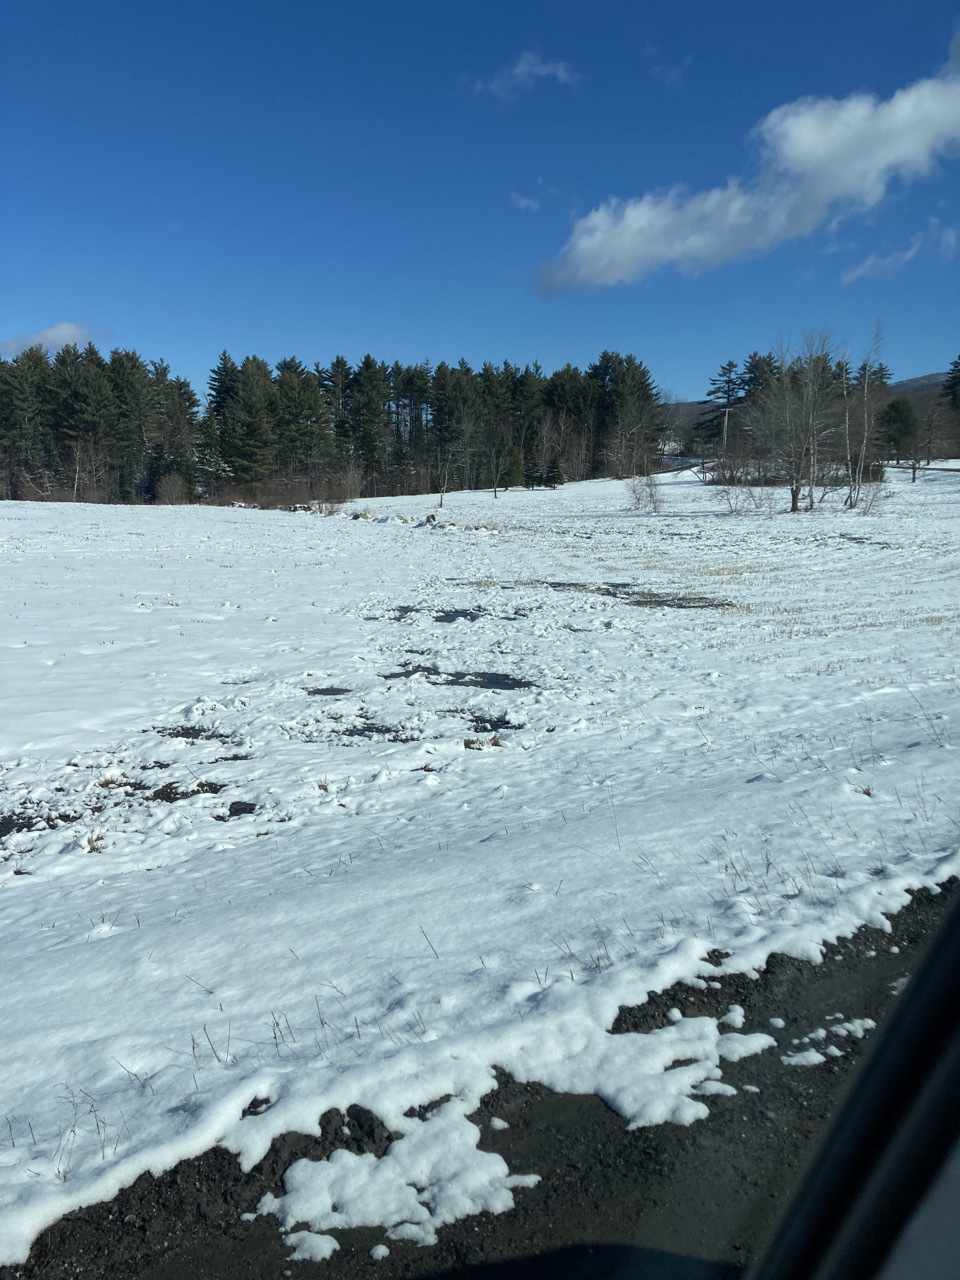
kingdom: Plantae
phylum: Tracheophyta
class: Pinopsida
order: Pinales
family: Pinaceae
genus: Pinus
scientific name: Pinus strobus
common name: Weymouth pine
